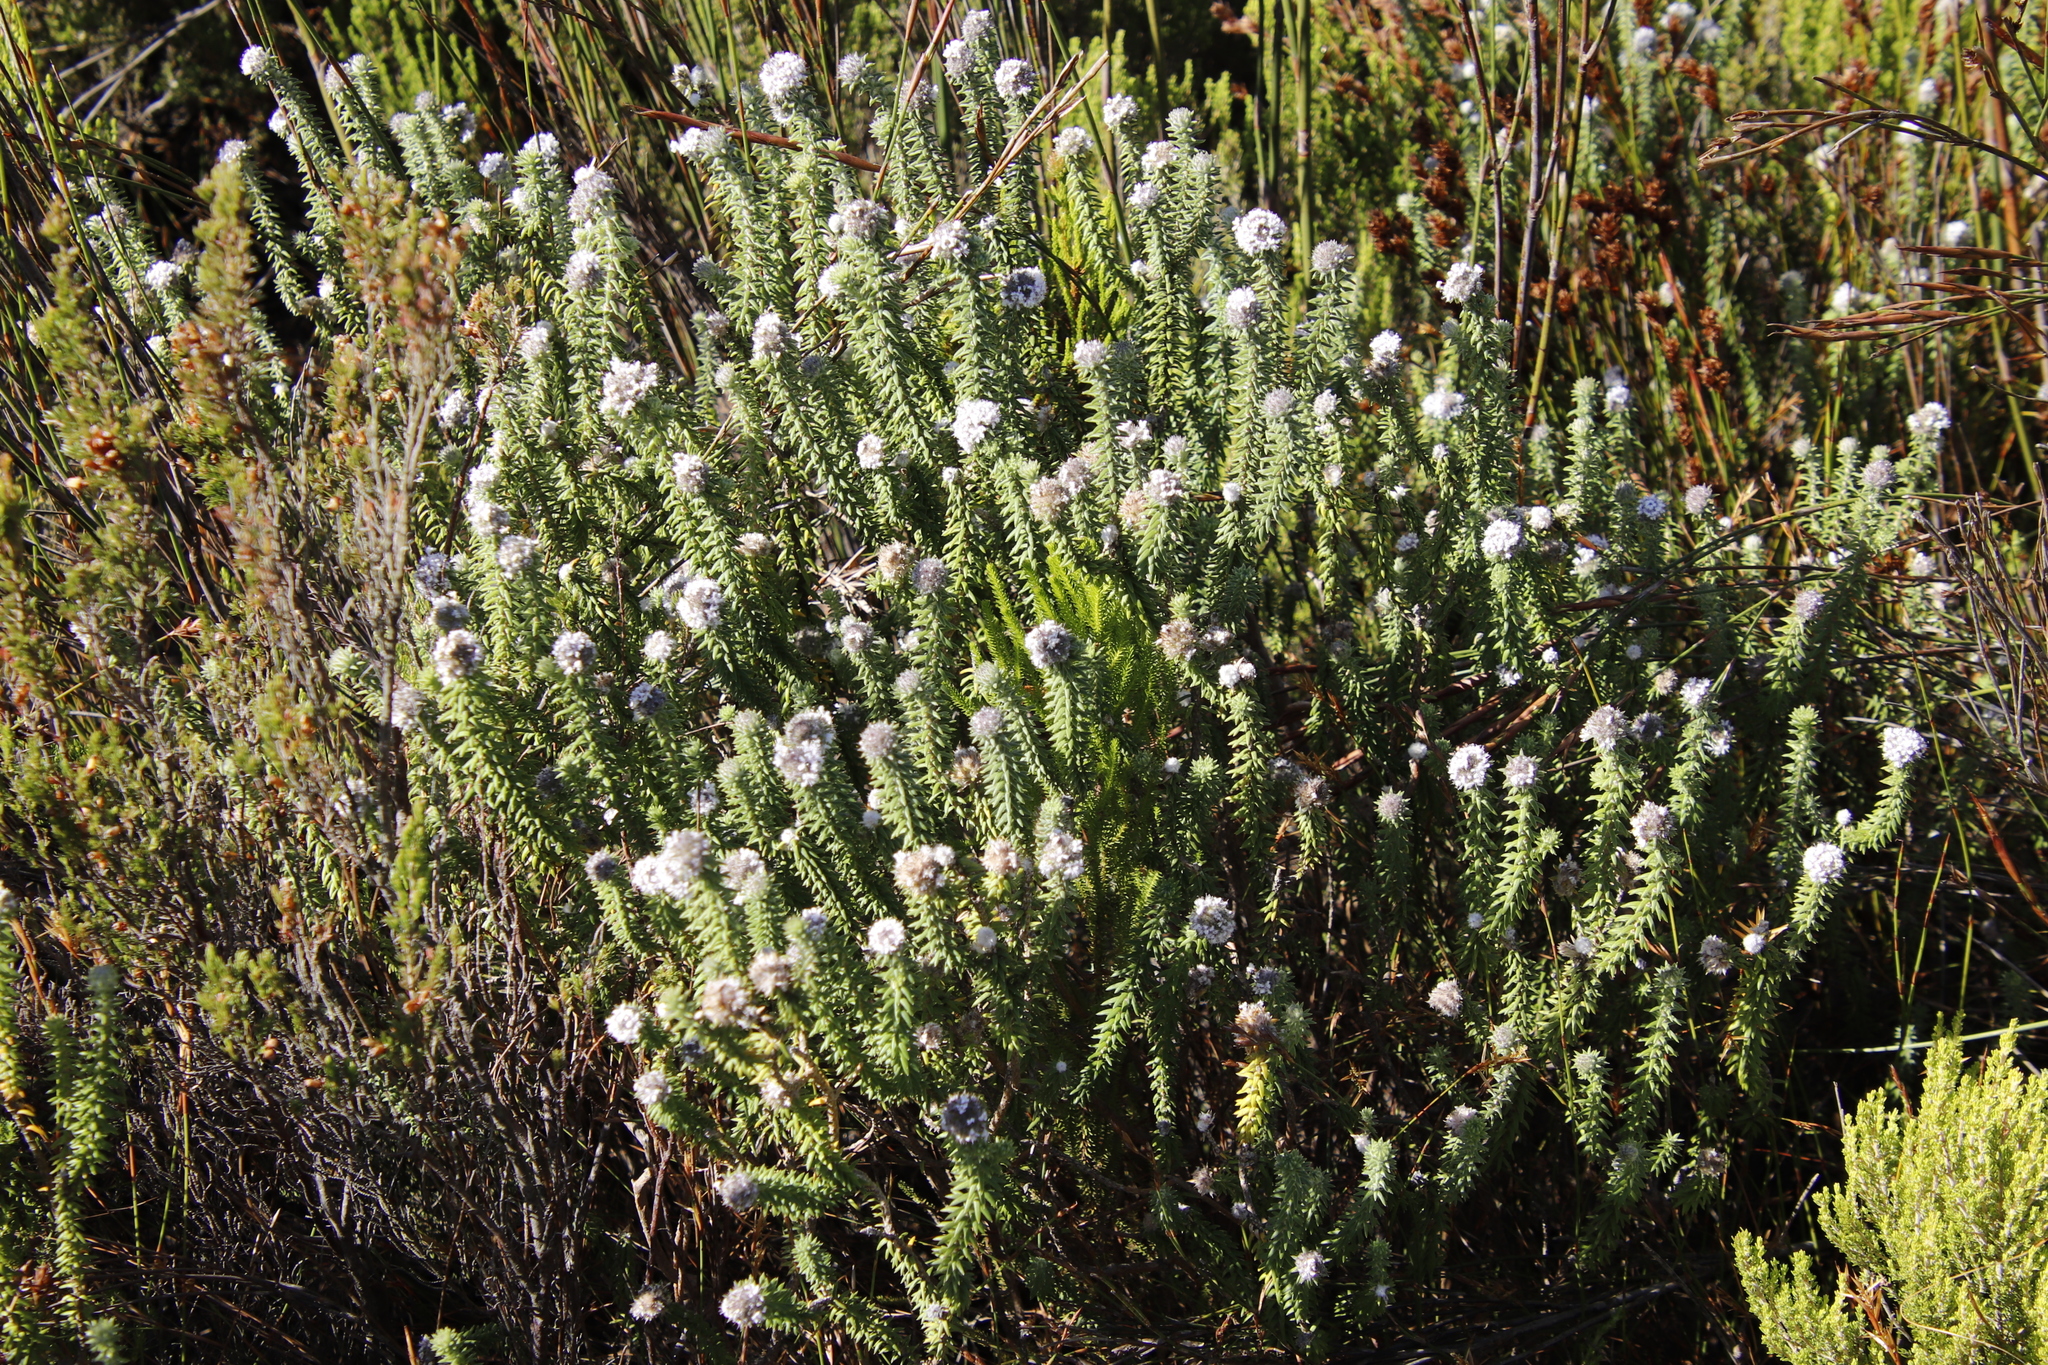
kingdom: Plantae
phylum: Tracheophyta
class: Magnoliopsida
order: Lamiales
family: Stilbaceae
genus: Kogelbergia
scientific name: Kogelbergia verticillata
